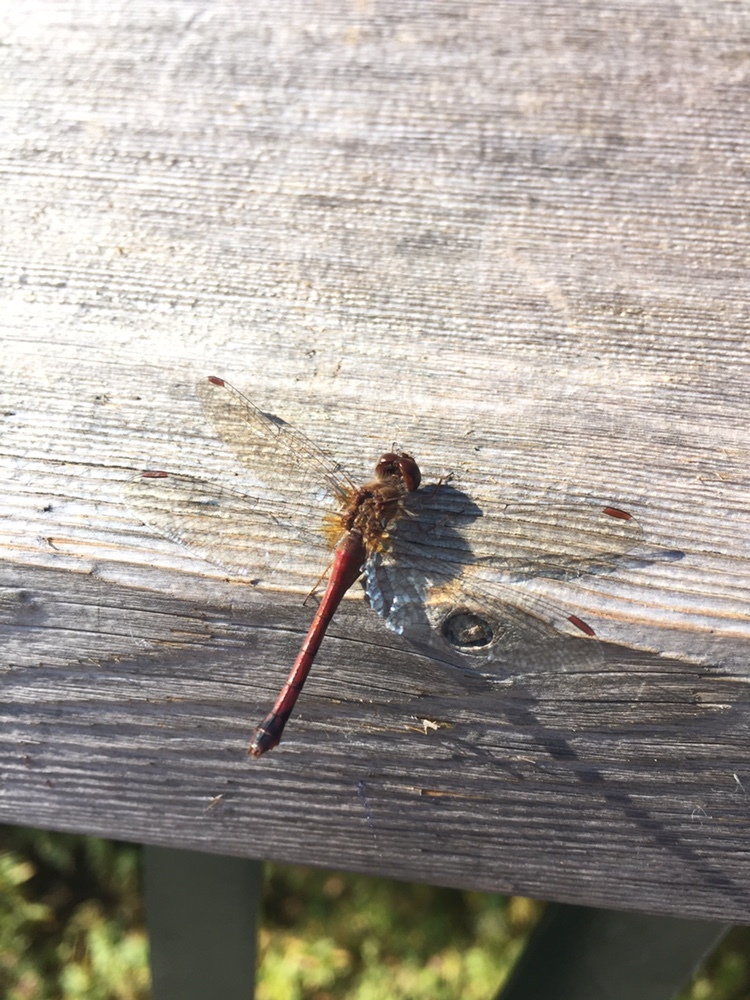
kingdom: Animalia
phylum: Arthropoda
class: Insecta
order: Odonata
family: Libellulidae
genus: Sympetrum
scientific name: Sympetrum vicinum
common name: Autumn meadowhawk
